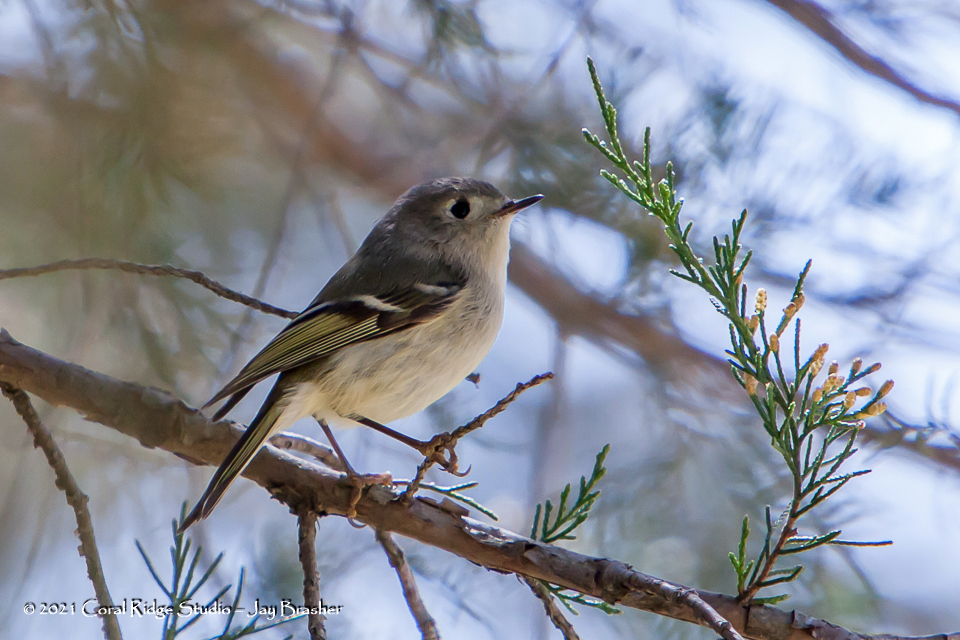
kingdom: Animalia
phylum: Chordata
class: Aves
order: Passeriformes
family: Regulidae
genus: Regulus
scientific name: Regulus calendula
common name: Ruby-crowned kinglet
